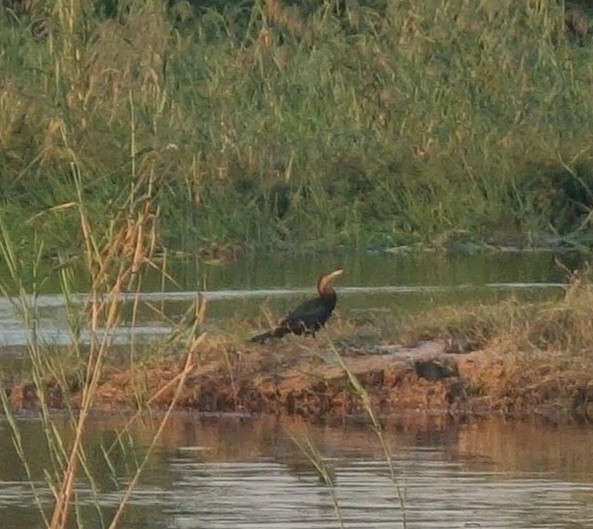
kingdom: Animalia
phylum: Chordata
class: Aves
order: Suliformes
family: Anhingidae
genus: Anhinga
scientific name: Anhinga rufa
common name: African darter
